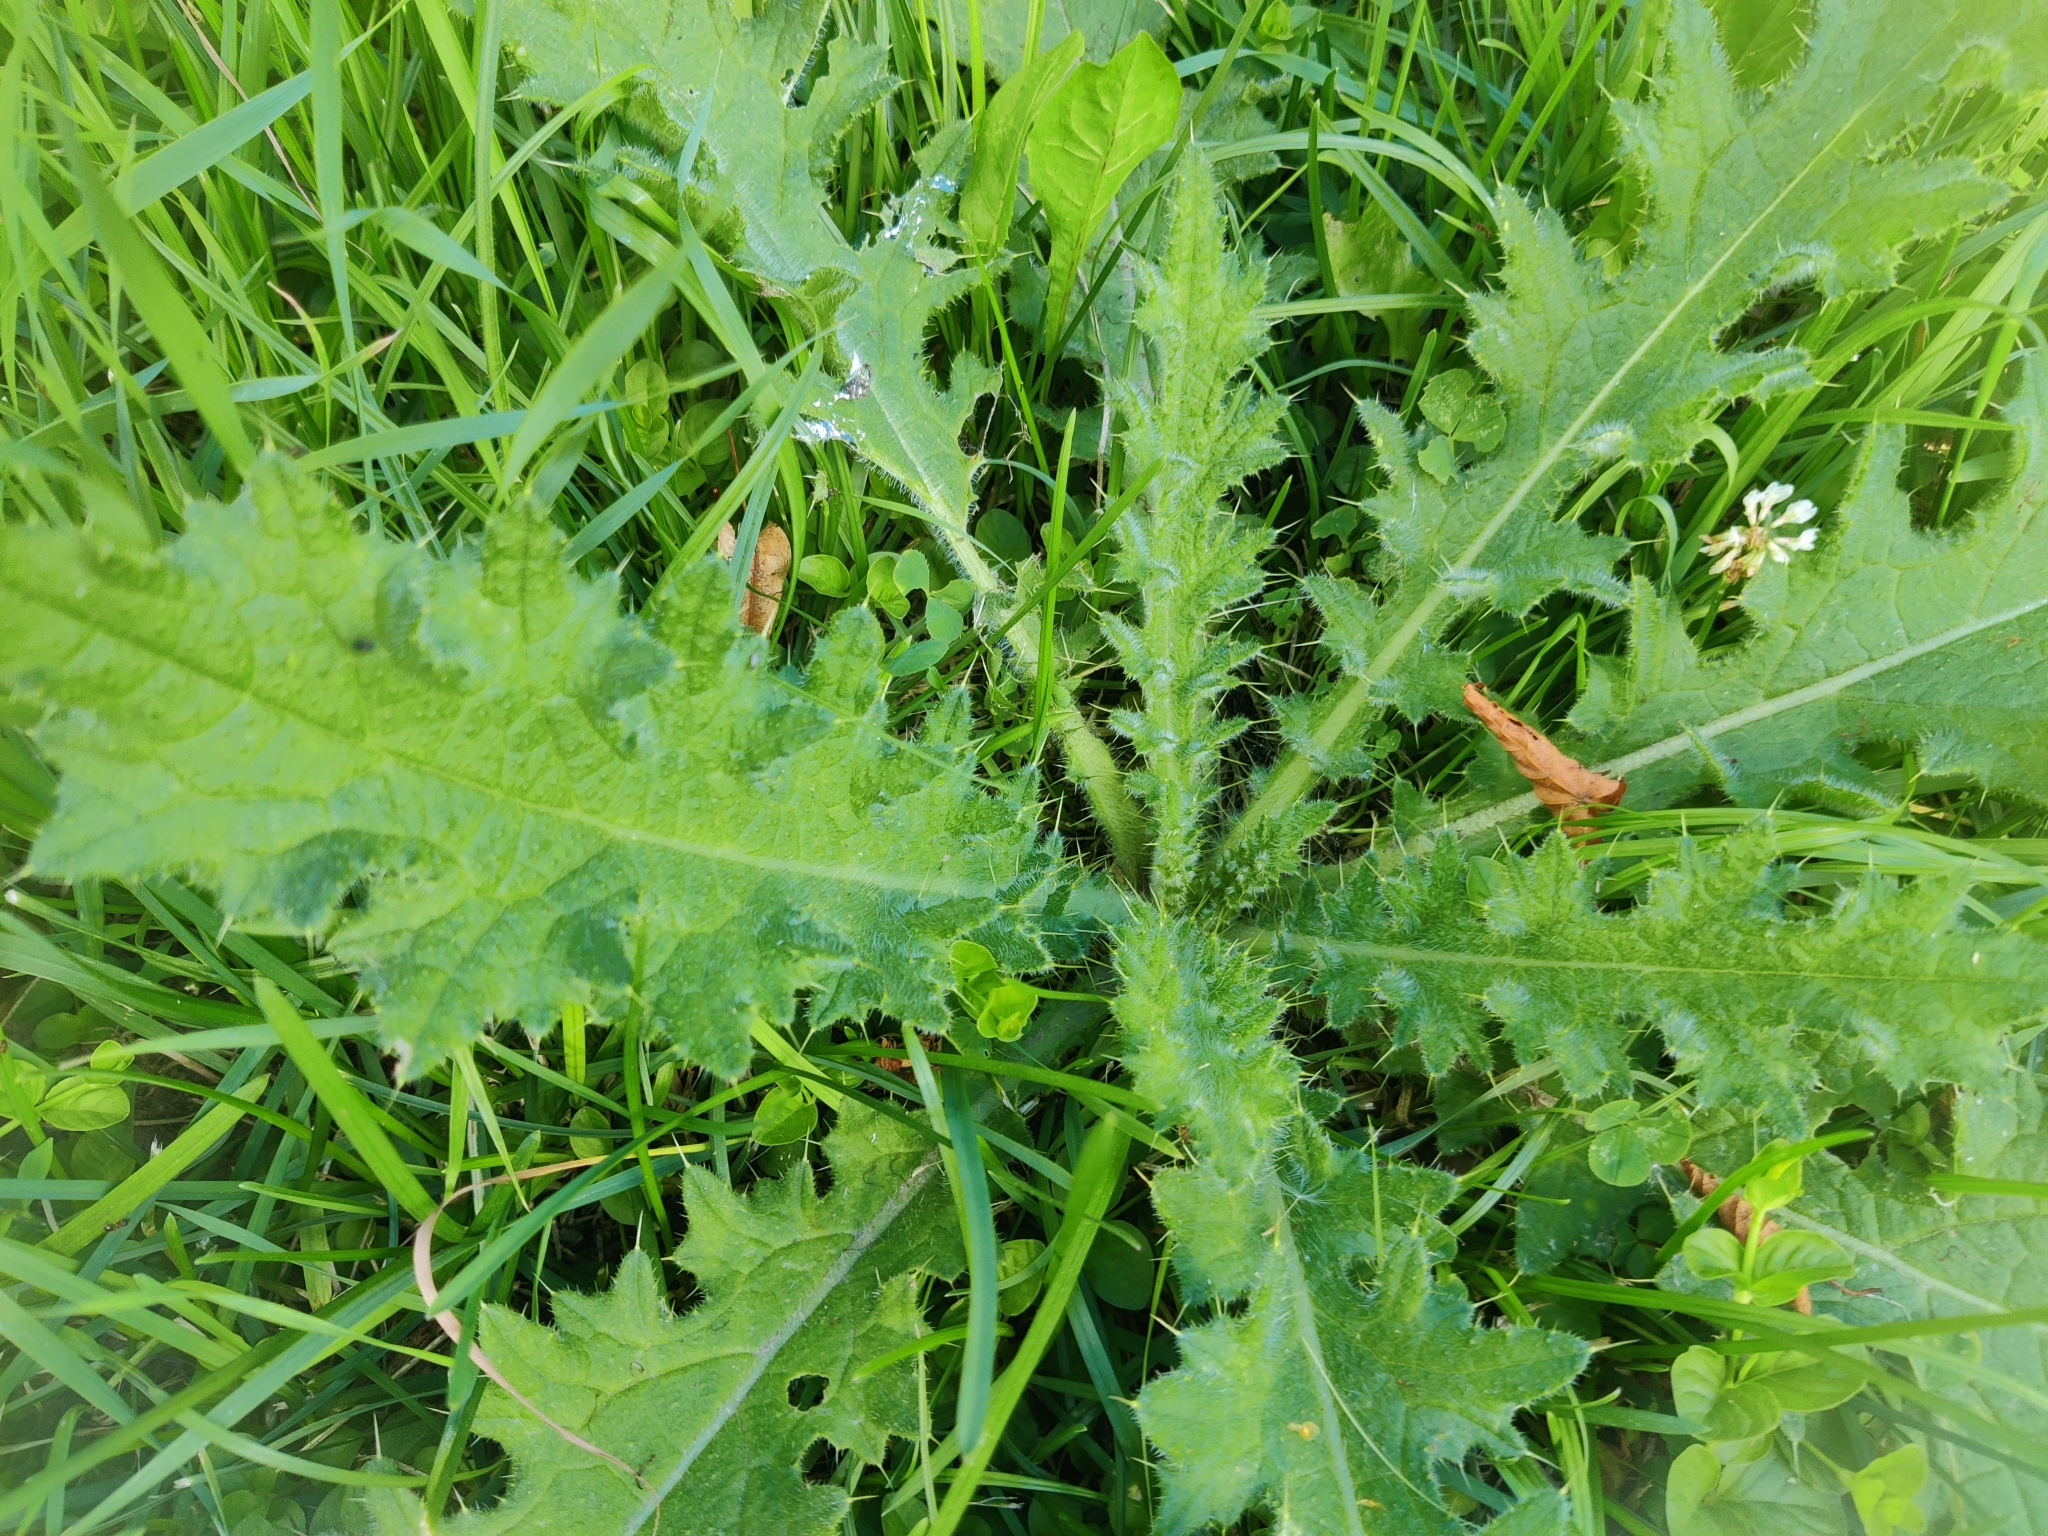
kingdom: Plantae
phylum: Tracheophyta
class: Magnoliopsida
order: Asterales
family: Asteraceae
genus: Cirsium
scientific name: Cirsium vulgare
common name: Bull thistle
